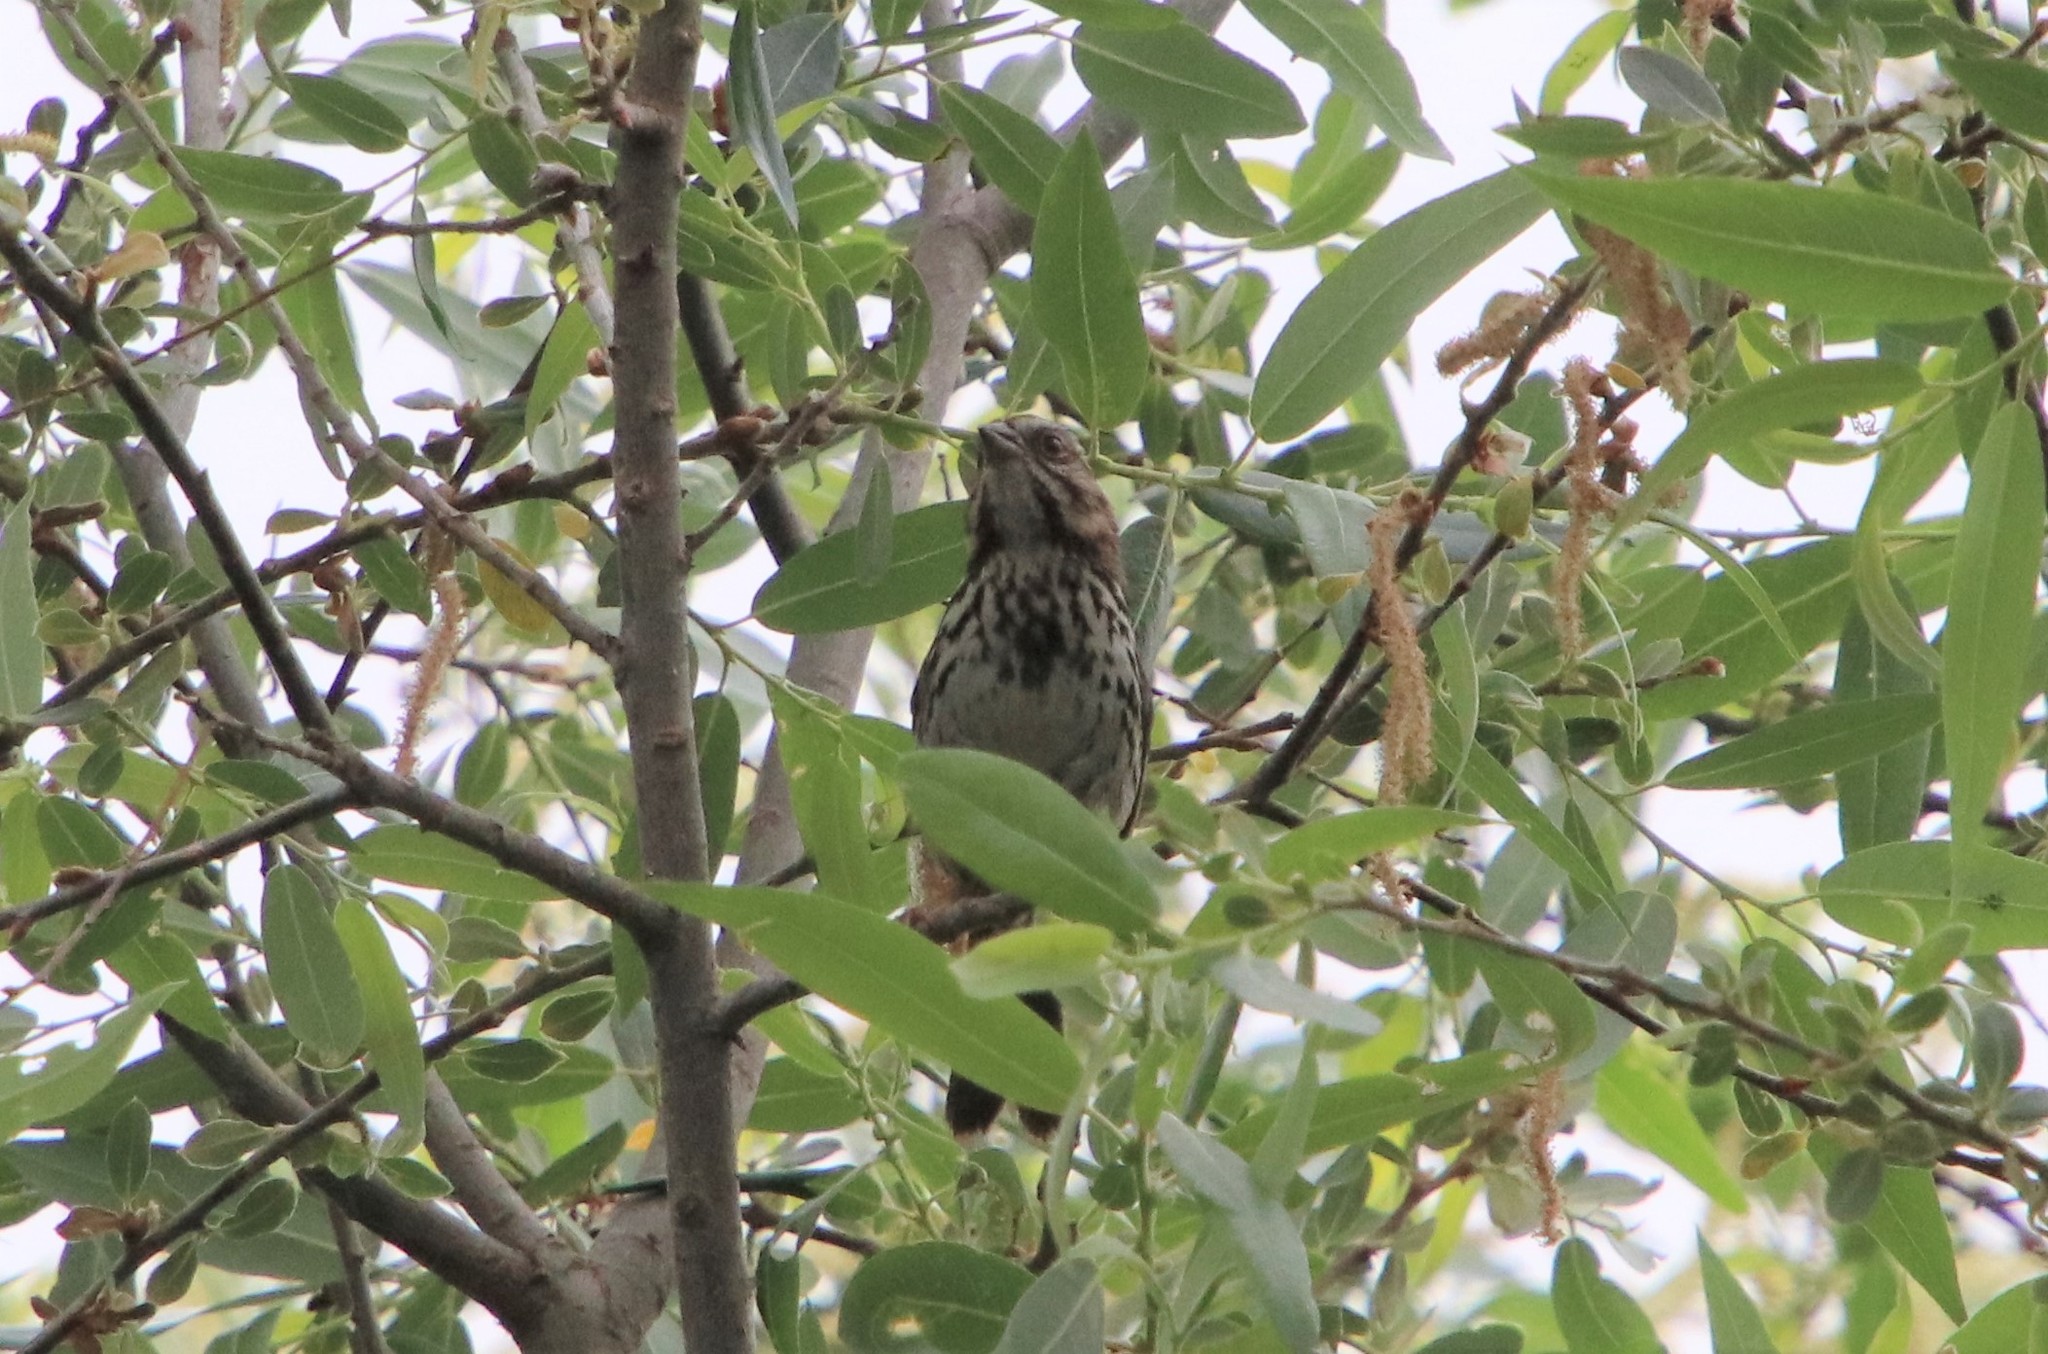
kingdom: Animalia
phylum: Chordata
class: Aves
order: Passeriformes
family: Passerellidae
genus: Melospiza
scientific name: Melospiza melodia
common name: Song sparrow
